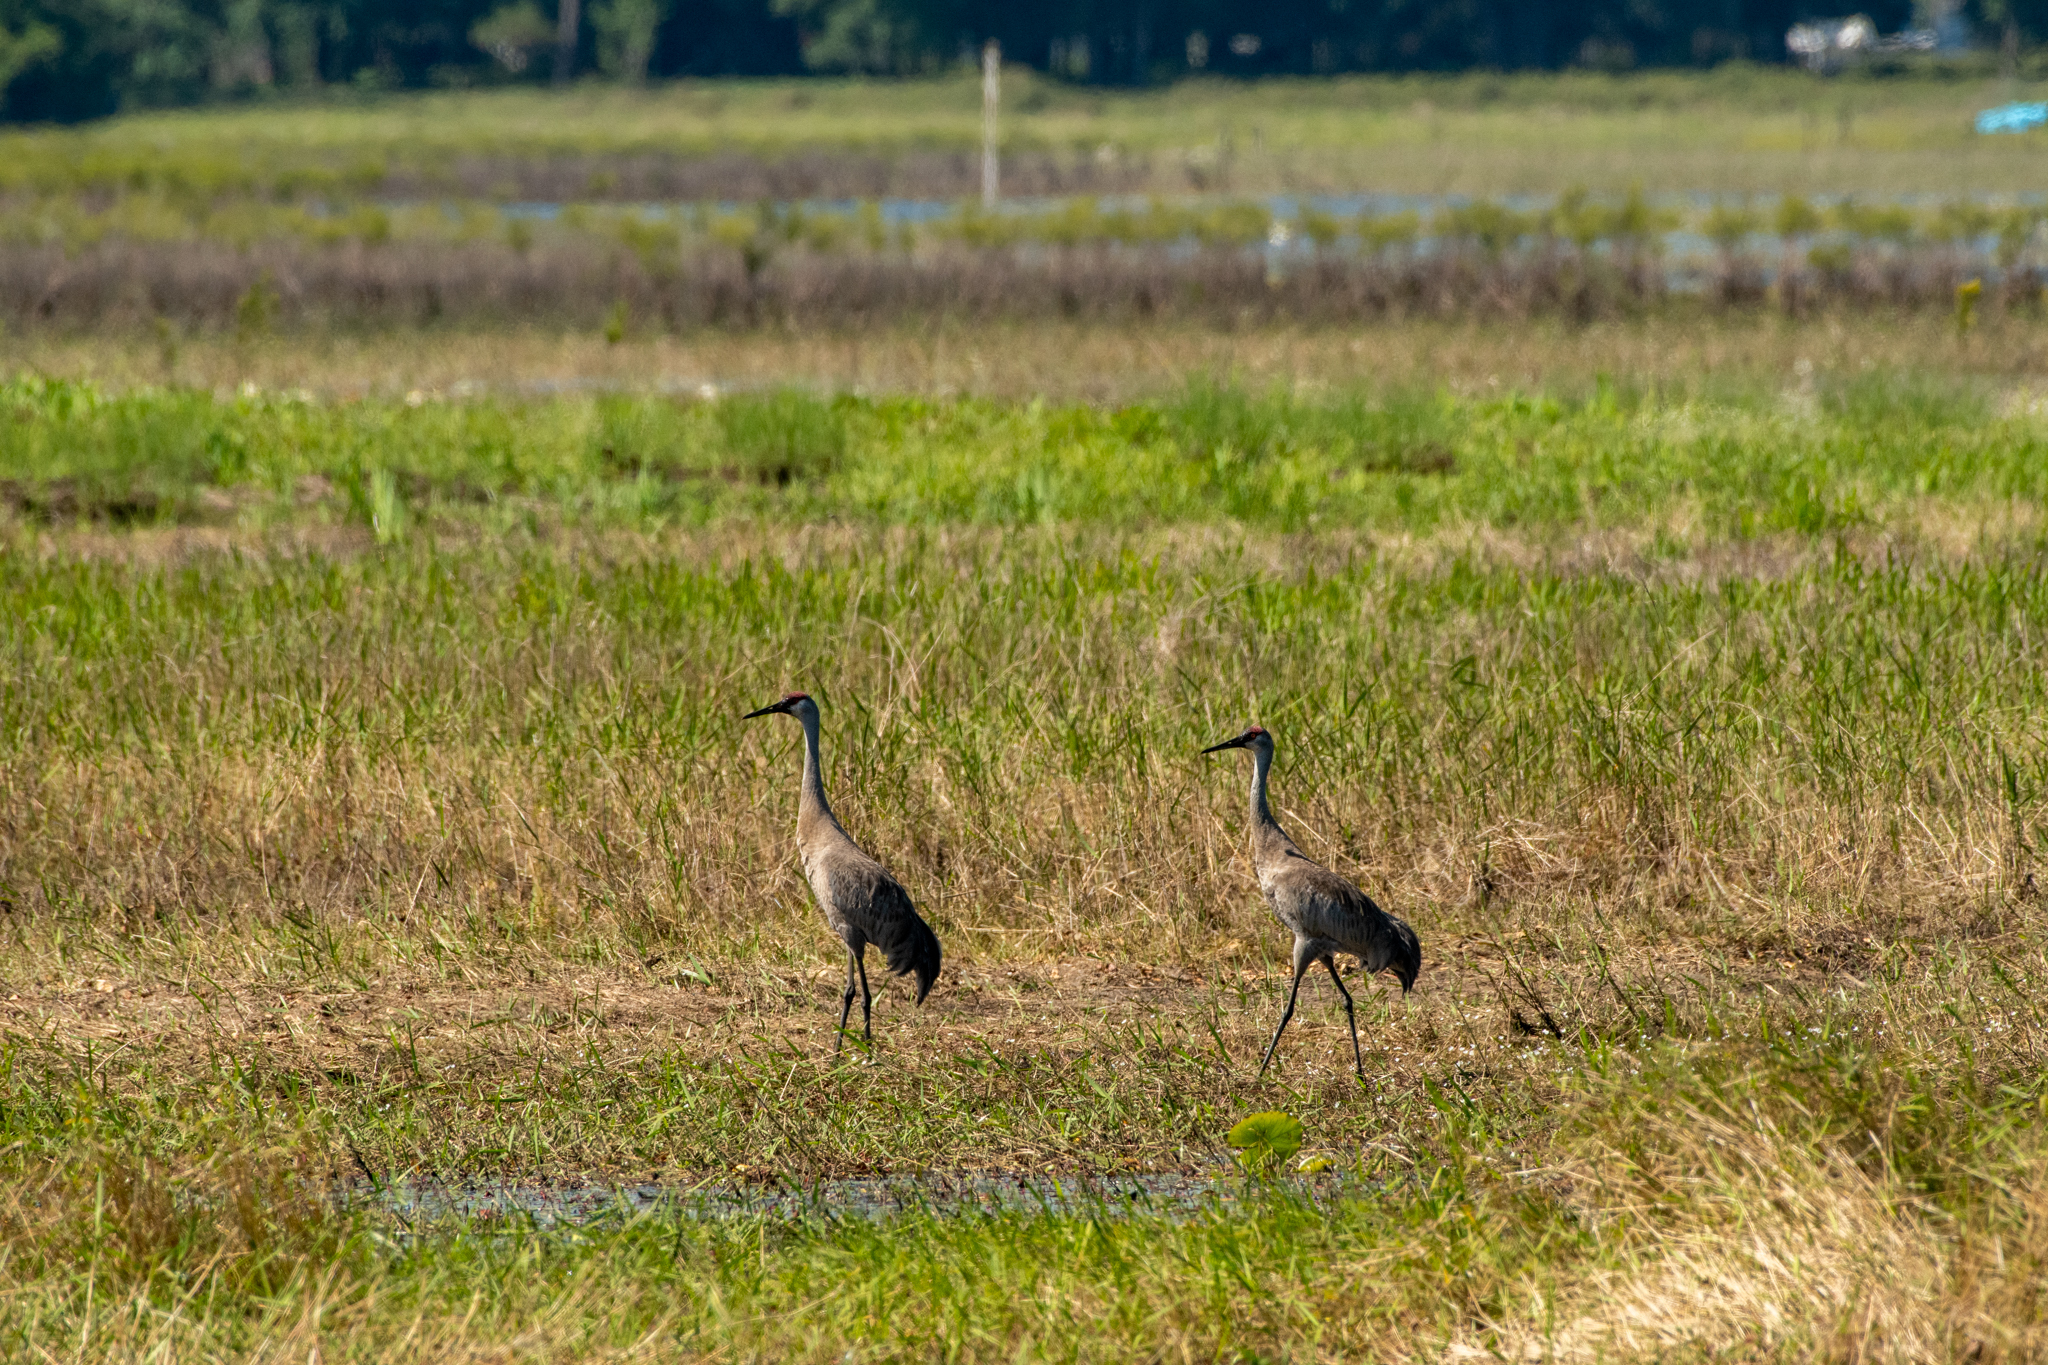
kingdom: Animalia
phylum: Chordata
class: Aves
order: Gruiformes
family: Gruidae
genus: Grus
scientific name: Grus canadensis
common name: Sandhill crane
